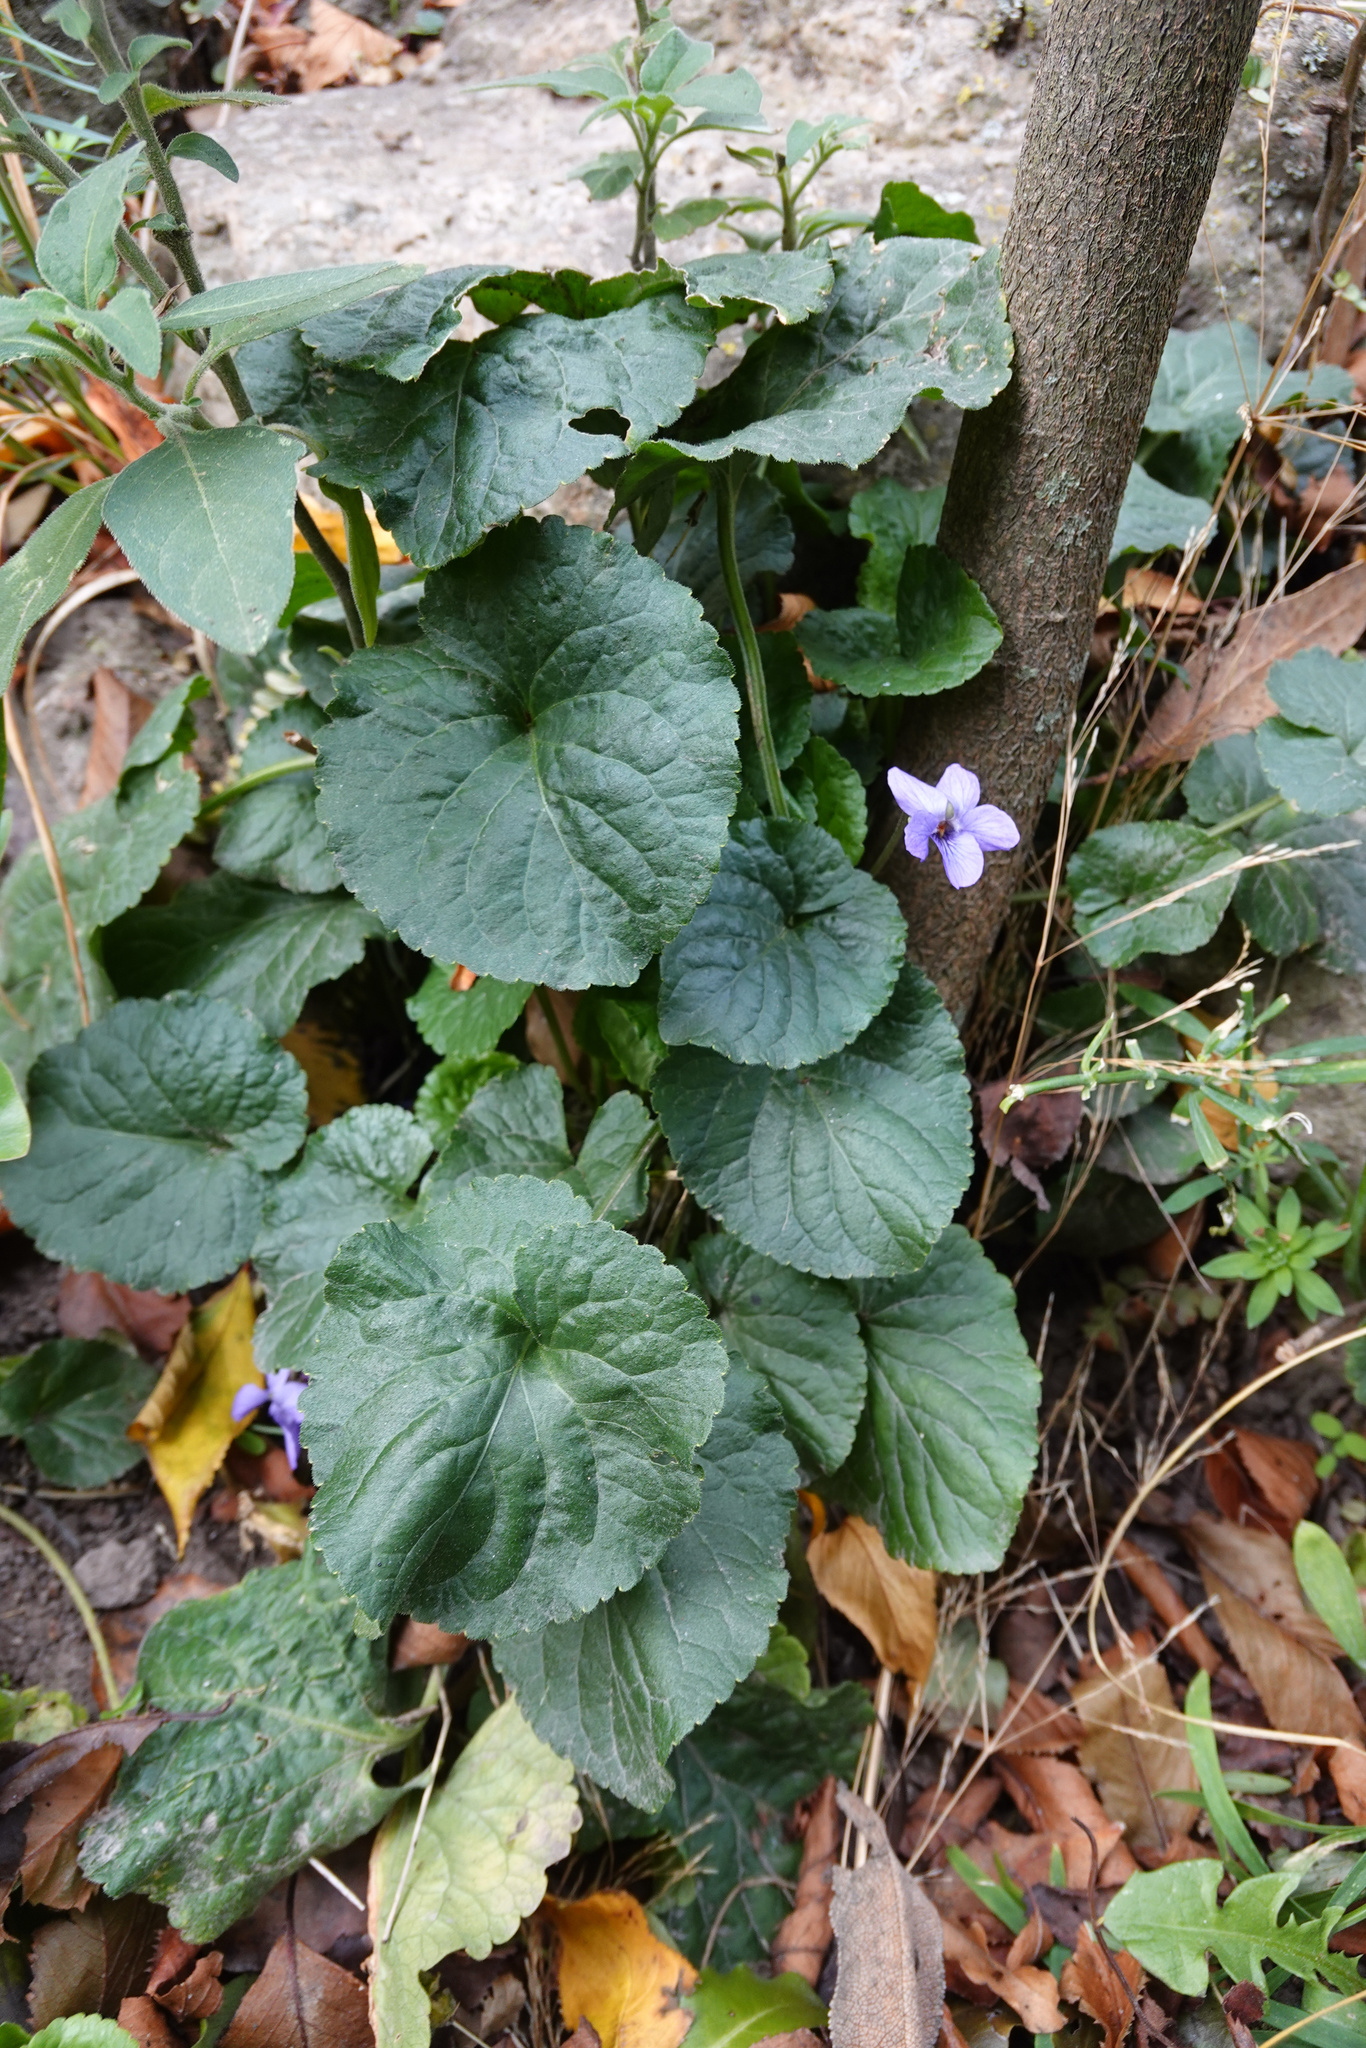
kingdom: Plantae
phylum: Tracheophyta
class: Magnoliopsida
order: Malpighiales
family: Violaceae
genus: Viola
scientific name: Viola odorata
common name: Sweet violet
